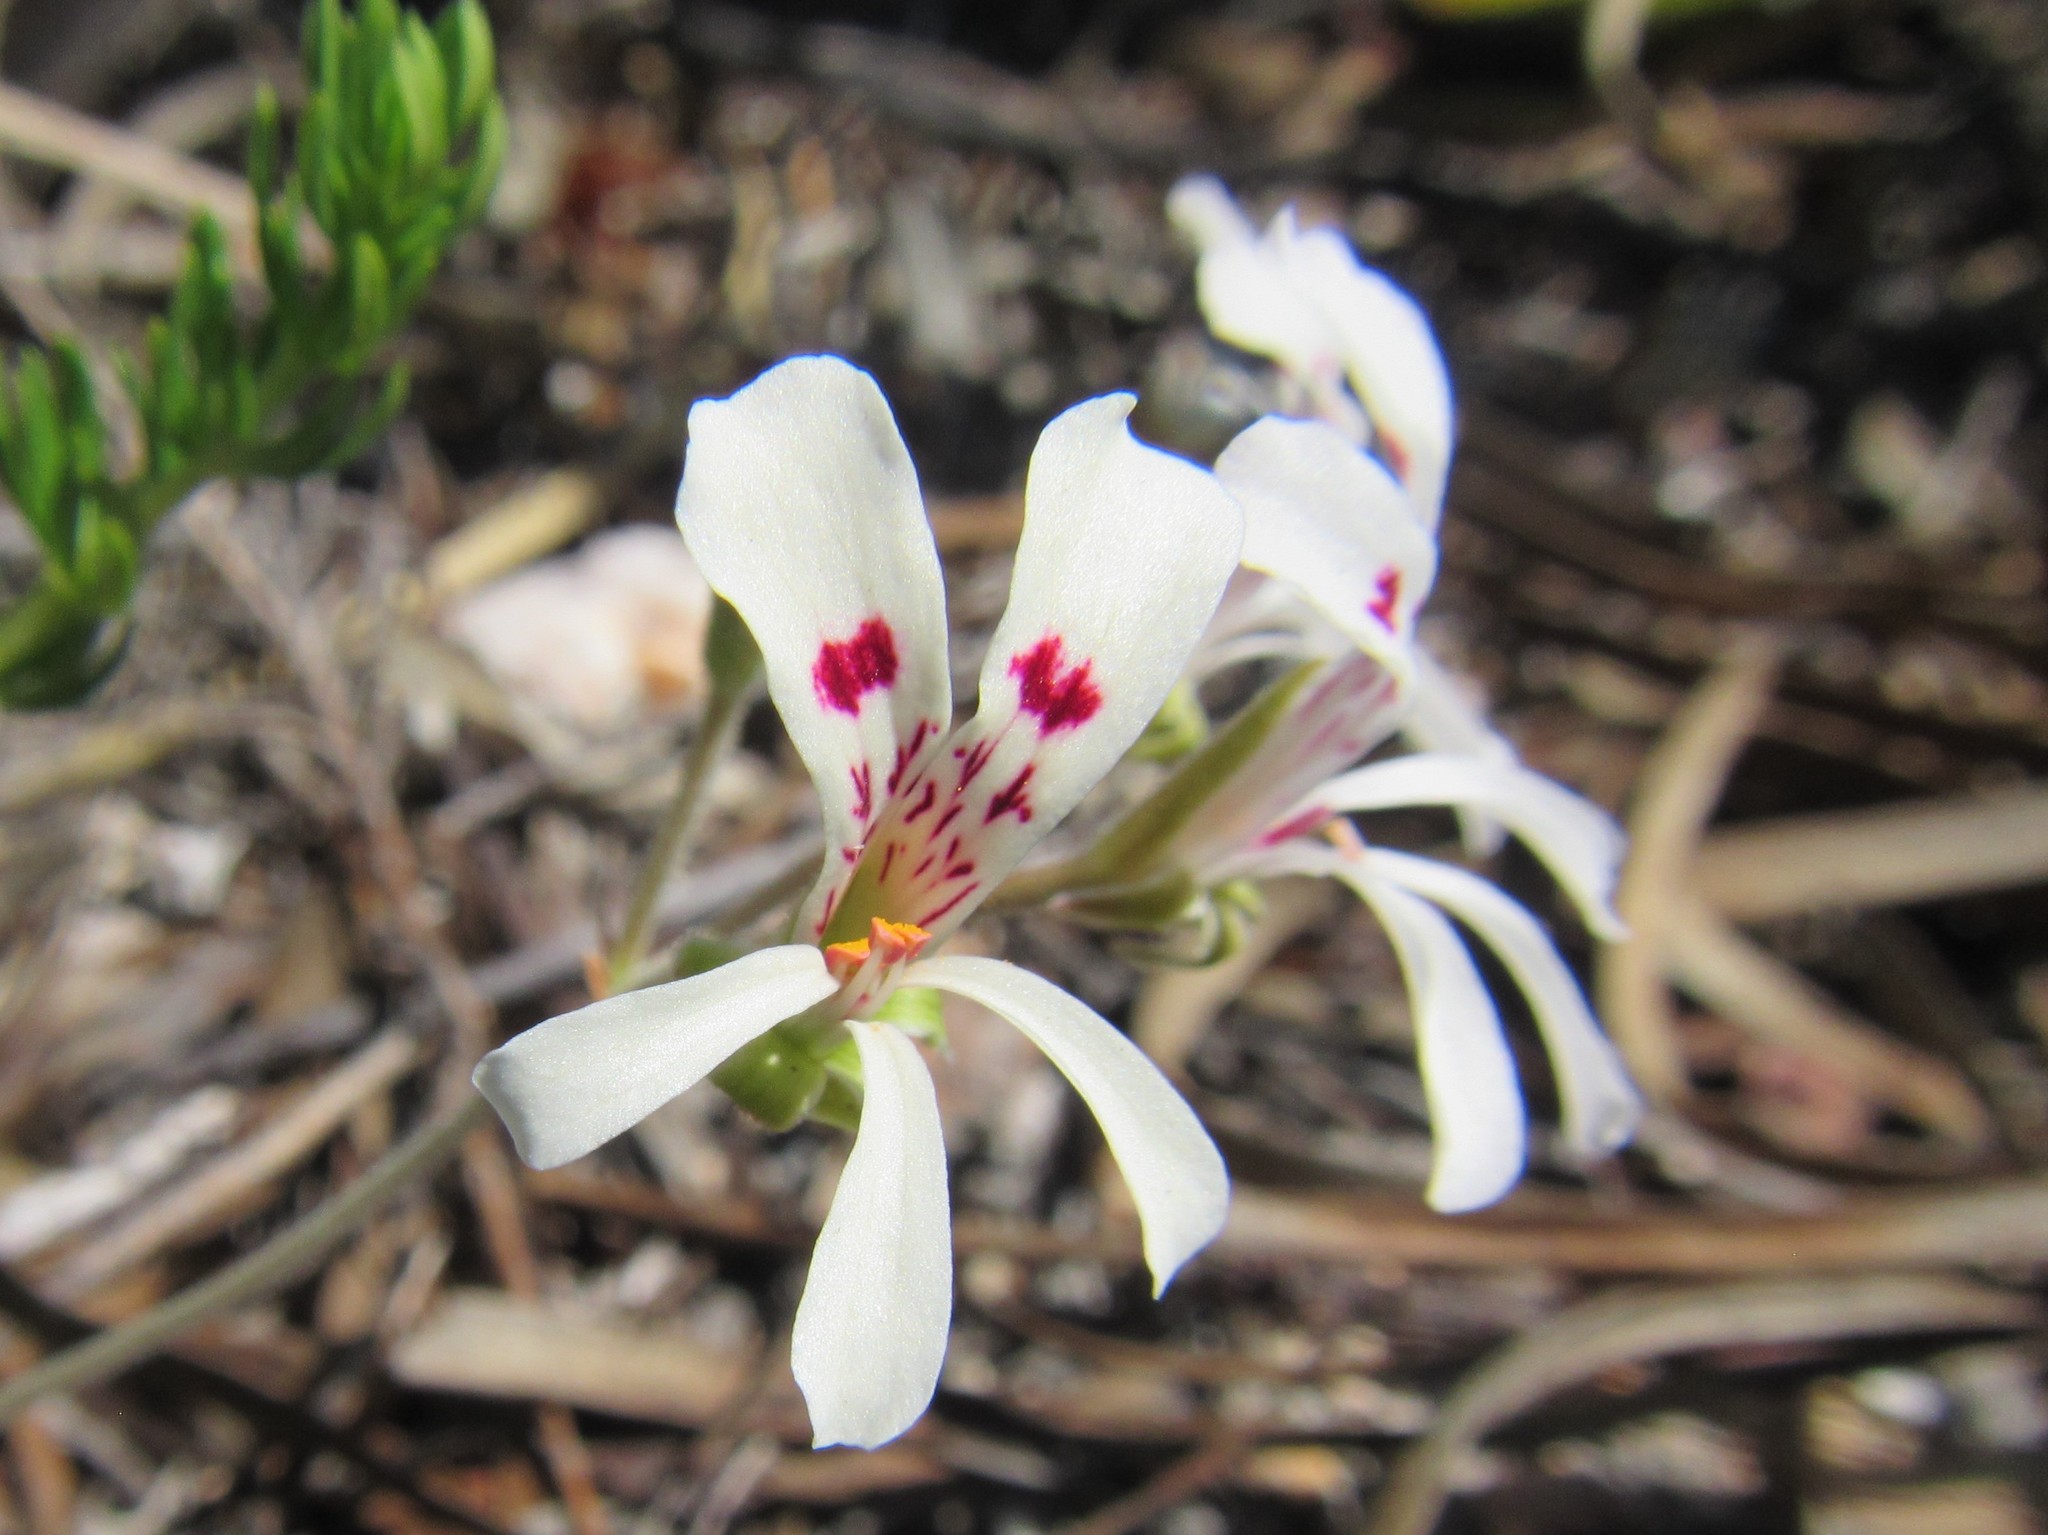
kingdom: Plantae
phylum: Tracheophyta
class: Magnoliopsida
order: Geraniales
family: Geraniaceae
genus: Pelargonium
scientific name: Pelargonium pinnatum
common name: Pinnated pelargonium
